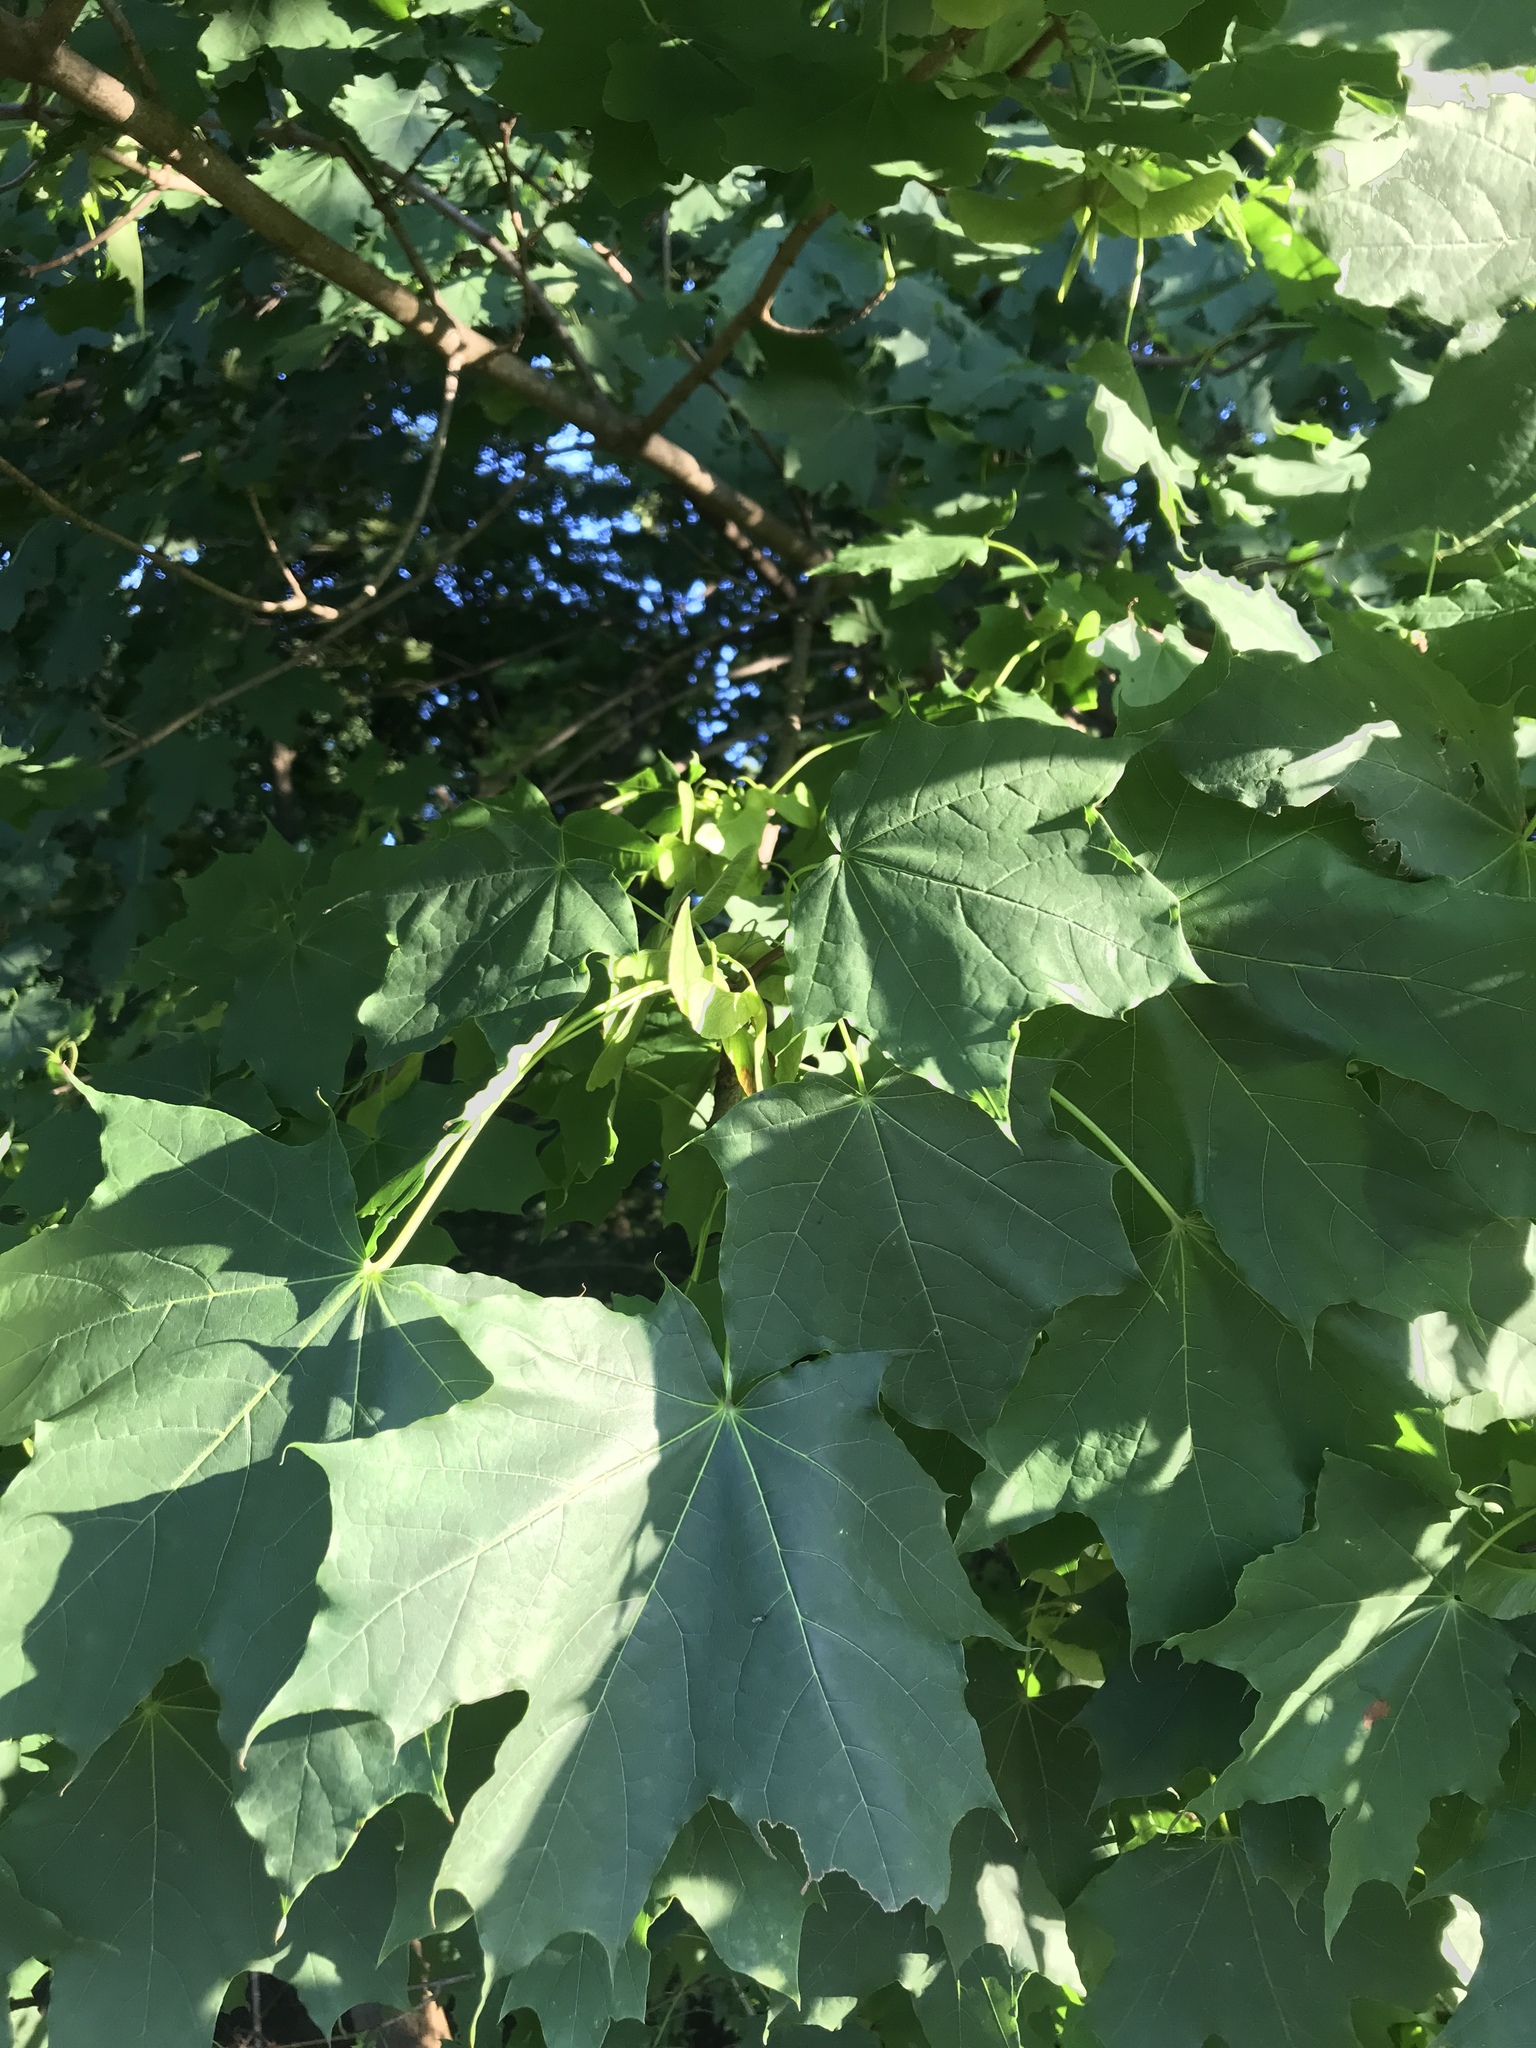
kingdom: Plantae
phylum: Tracheophyta
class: Magnoliopsida
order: Sapindales
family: Sapindaceae
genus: Acer
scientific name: Acer platanoides
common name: Norway maple
